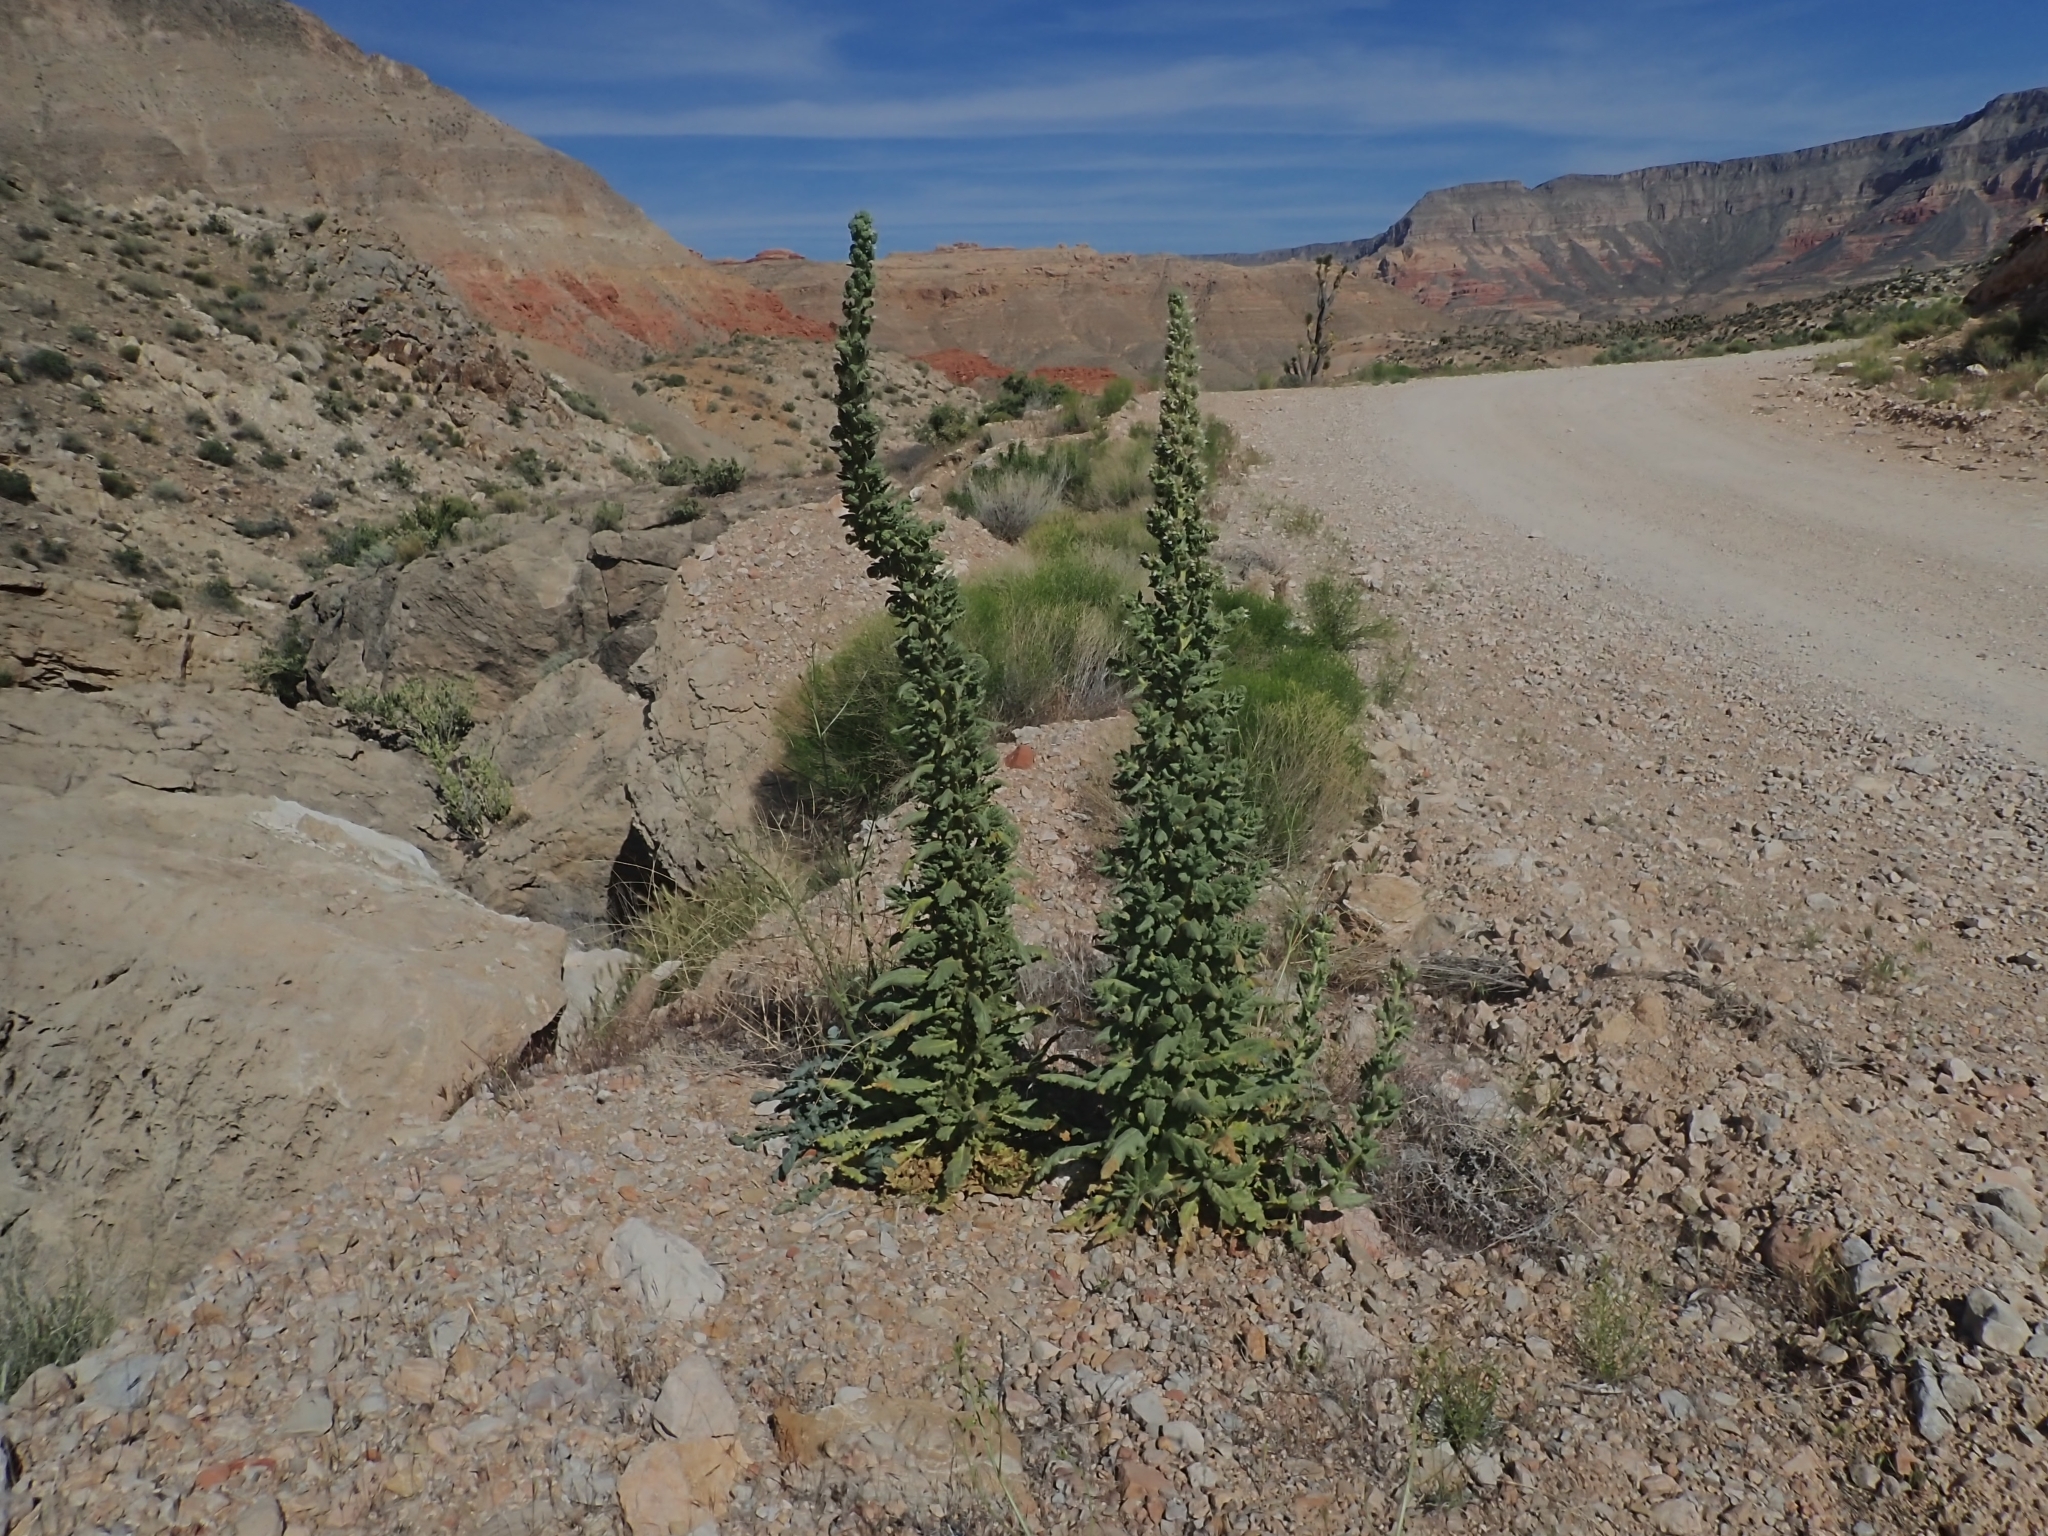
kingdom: Plantae
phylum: Tracheophyta
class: Magnoliopsida
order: Boraginales
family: Hydrophyllaceae
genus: Phacelia
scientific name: Phacelia palmeri
